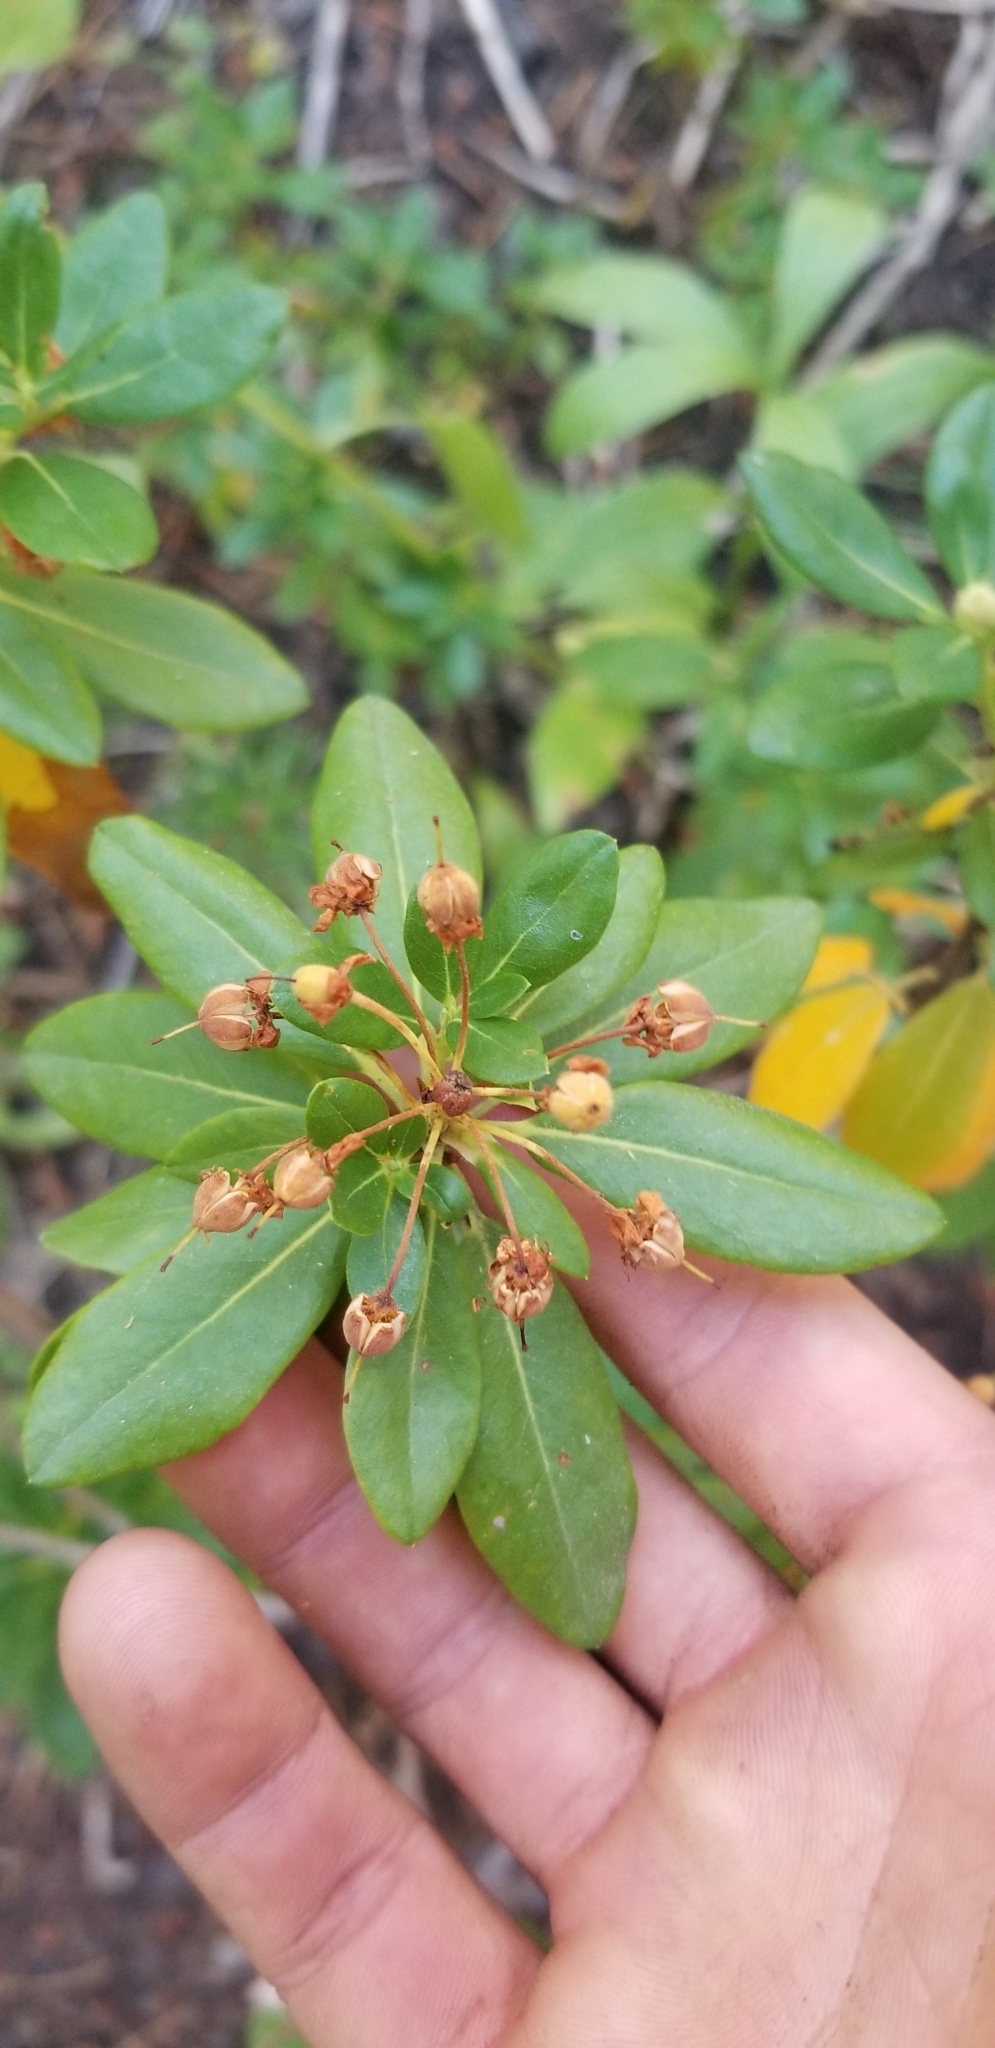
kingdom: Plantae
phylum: Tracheophyta
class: Magnoliopsida
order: Ericales
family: Ericaceae
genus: Rhododendron
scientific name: Rhododendron columbianum
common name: Western labrador tea
